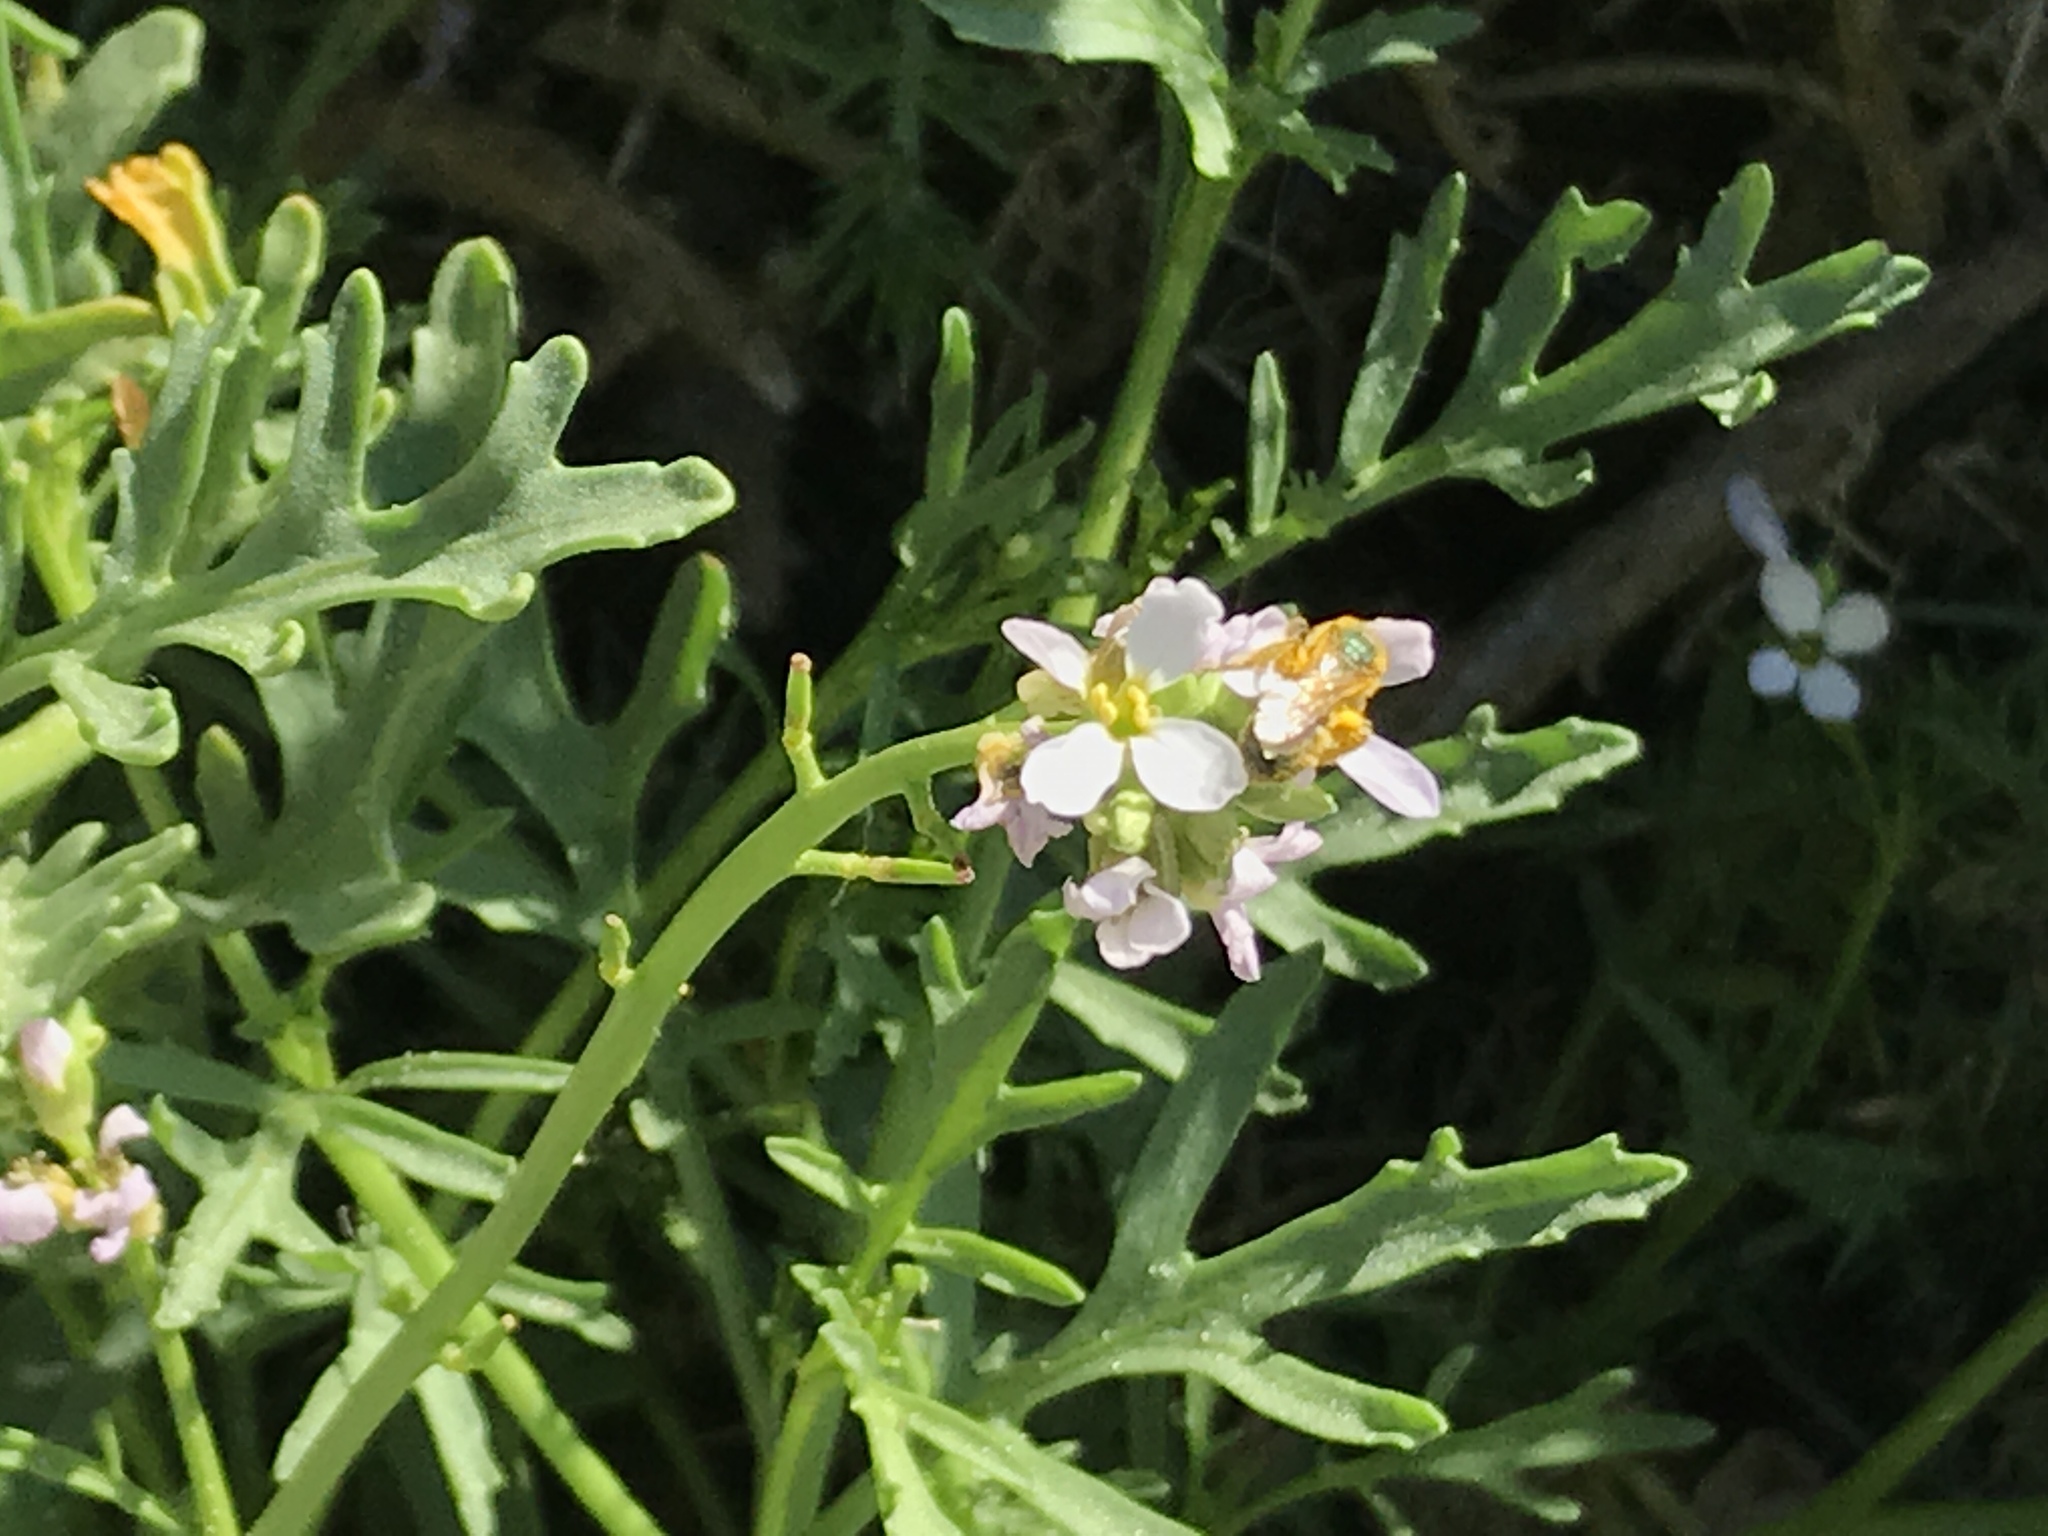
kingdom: Plantae
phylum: Tracheophyta
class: Magnoliopsida
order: Brassicales
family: Brassicaceae
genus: Cakile
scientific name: Cakile maritima
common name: Sea rocket
